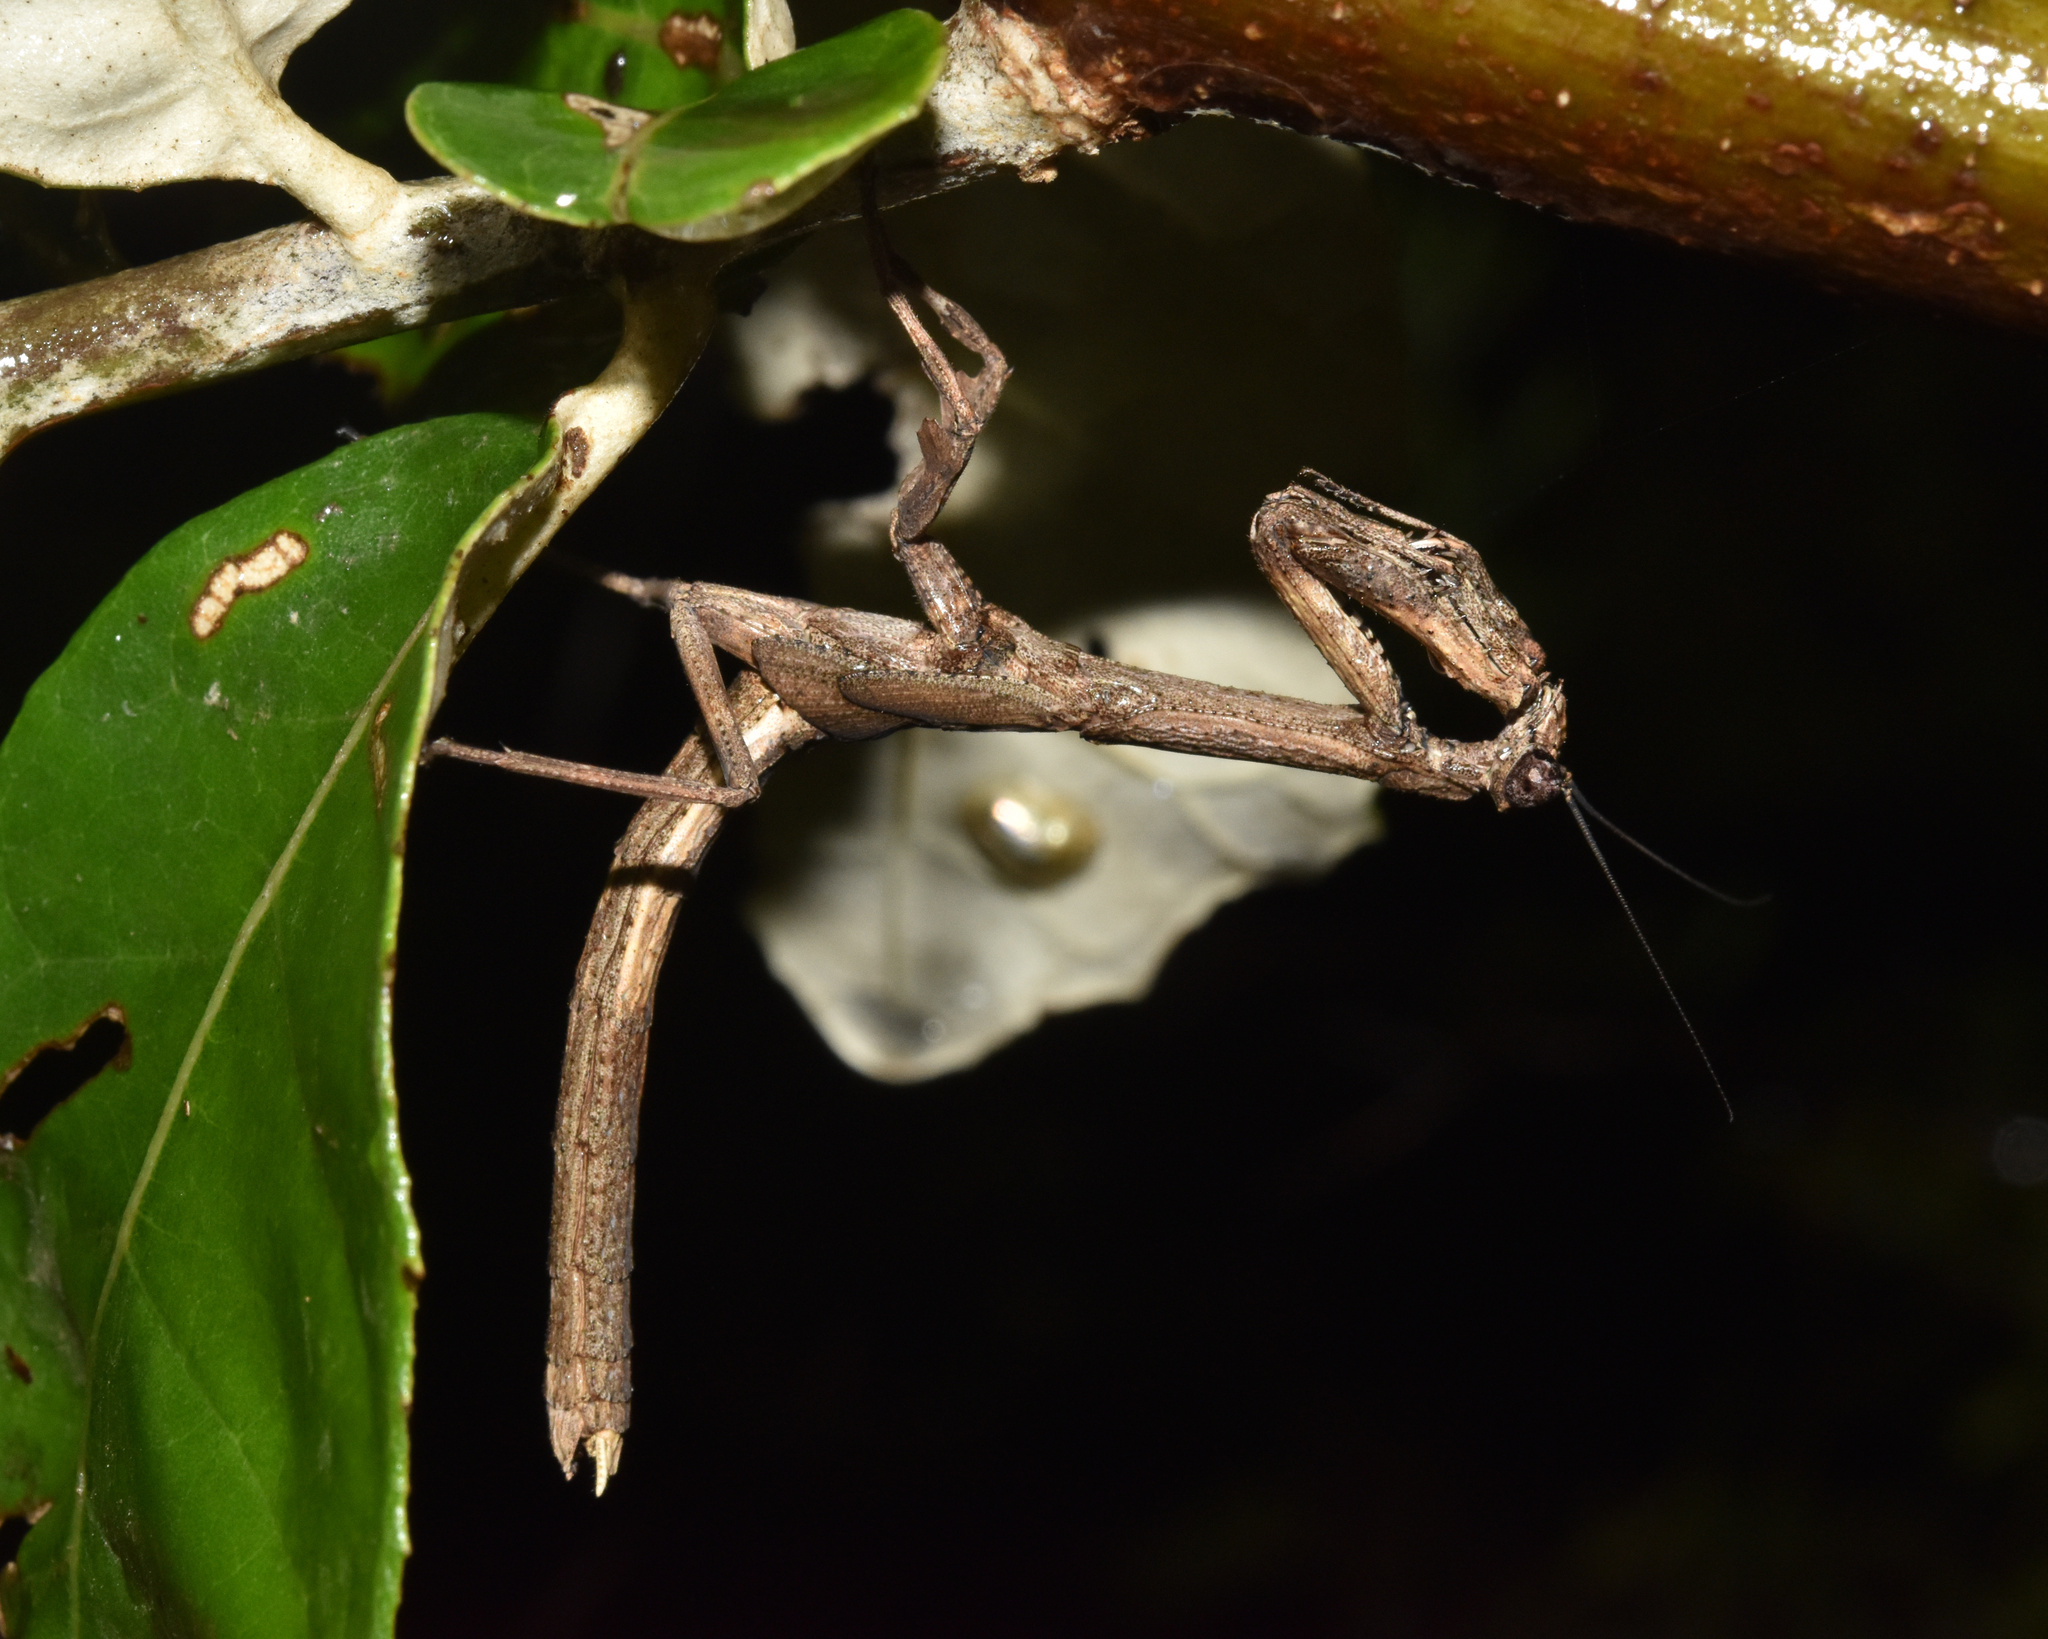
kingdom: Animalia
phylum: Arthropoda
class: Insecta
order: Mantodea
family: Deroplatyidae
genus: Popa
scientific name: Popa spurca
